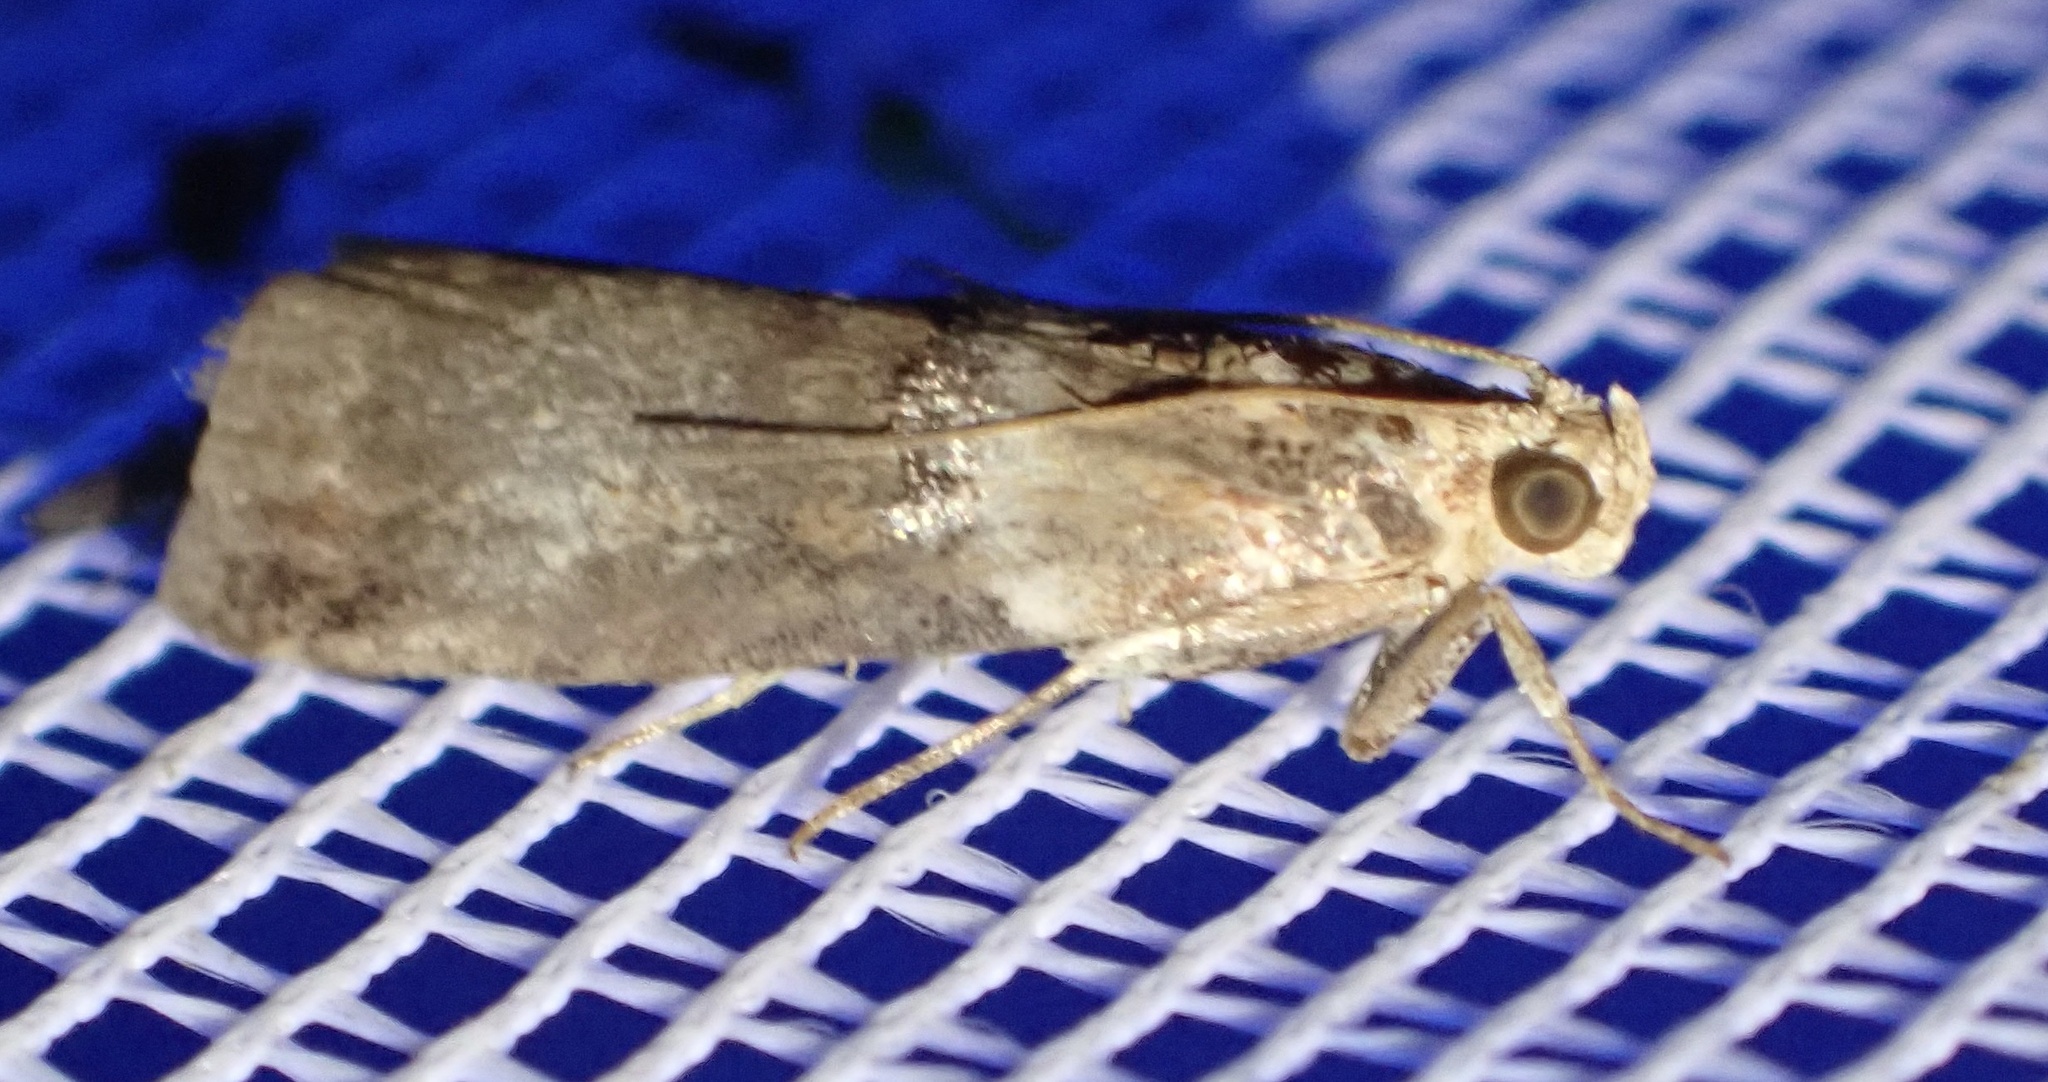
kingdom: Animalia
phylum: Arthropoda
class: Insecta
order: Lepidoptera
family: Pyralidae
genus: Acrobasis
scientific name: Acrobasis tumidana
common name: Scarce oak knot-horn
